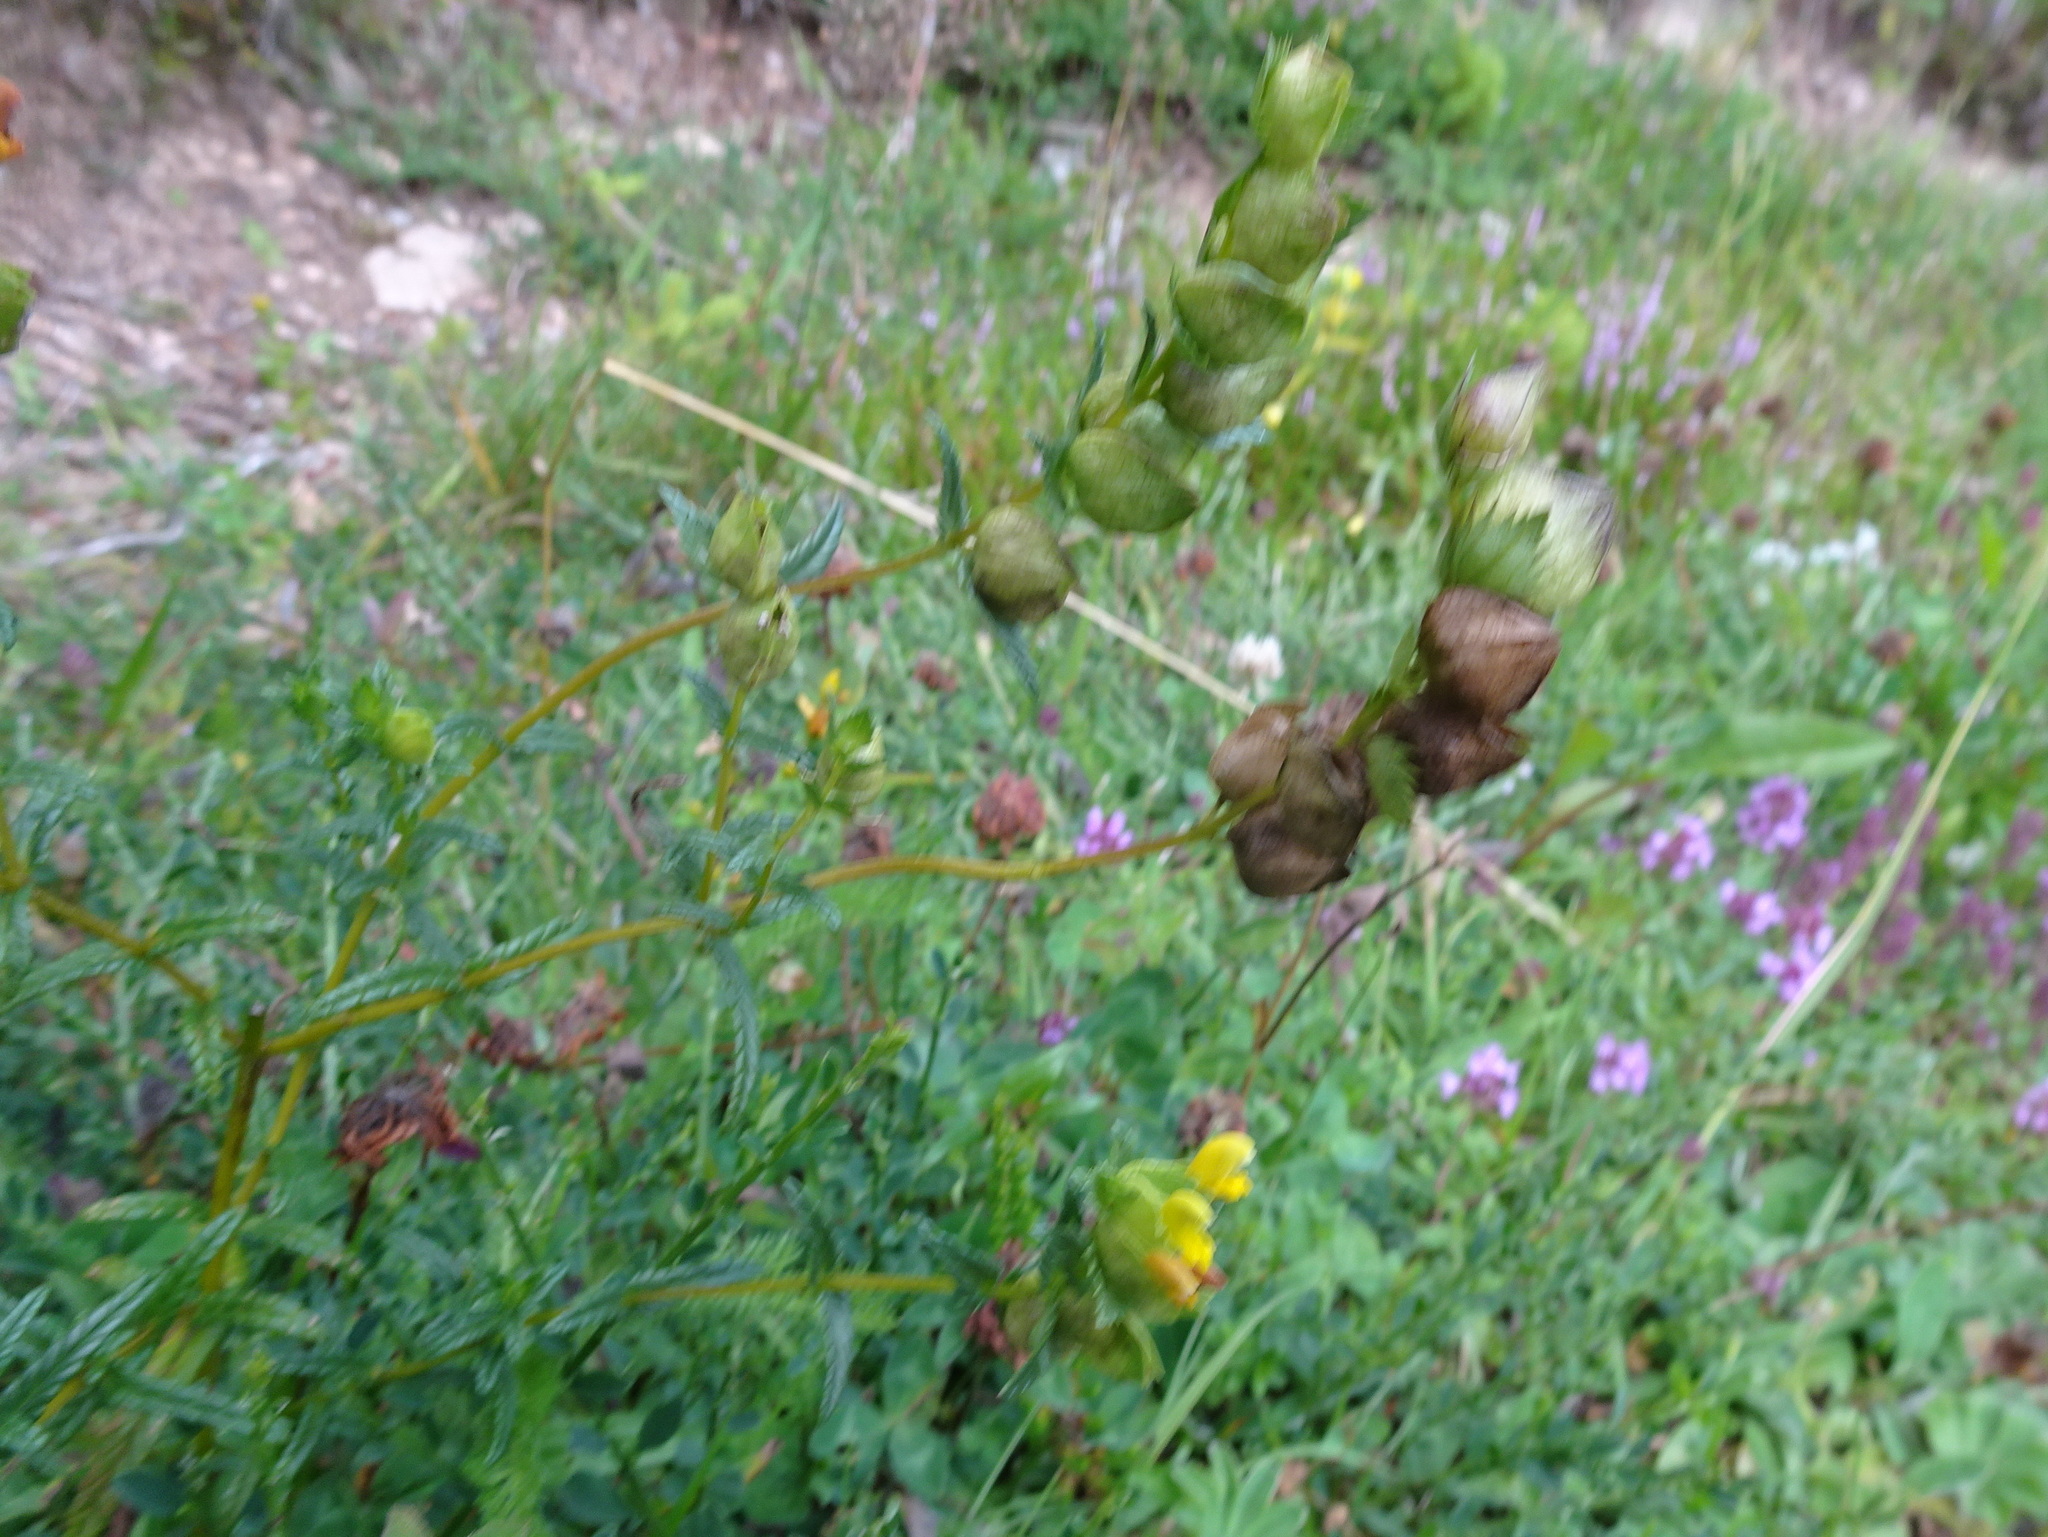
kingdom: Plantae
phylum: Tracheophyta
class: Magnoliopsida
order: Lamiales
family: Orobanchaceae
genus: Rhinanthus
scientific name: Rhinanthus minor
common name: Yellow-rattle
